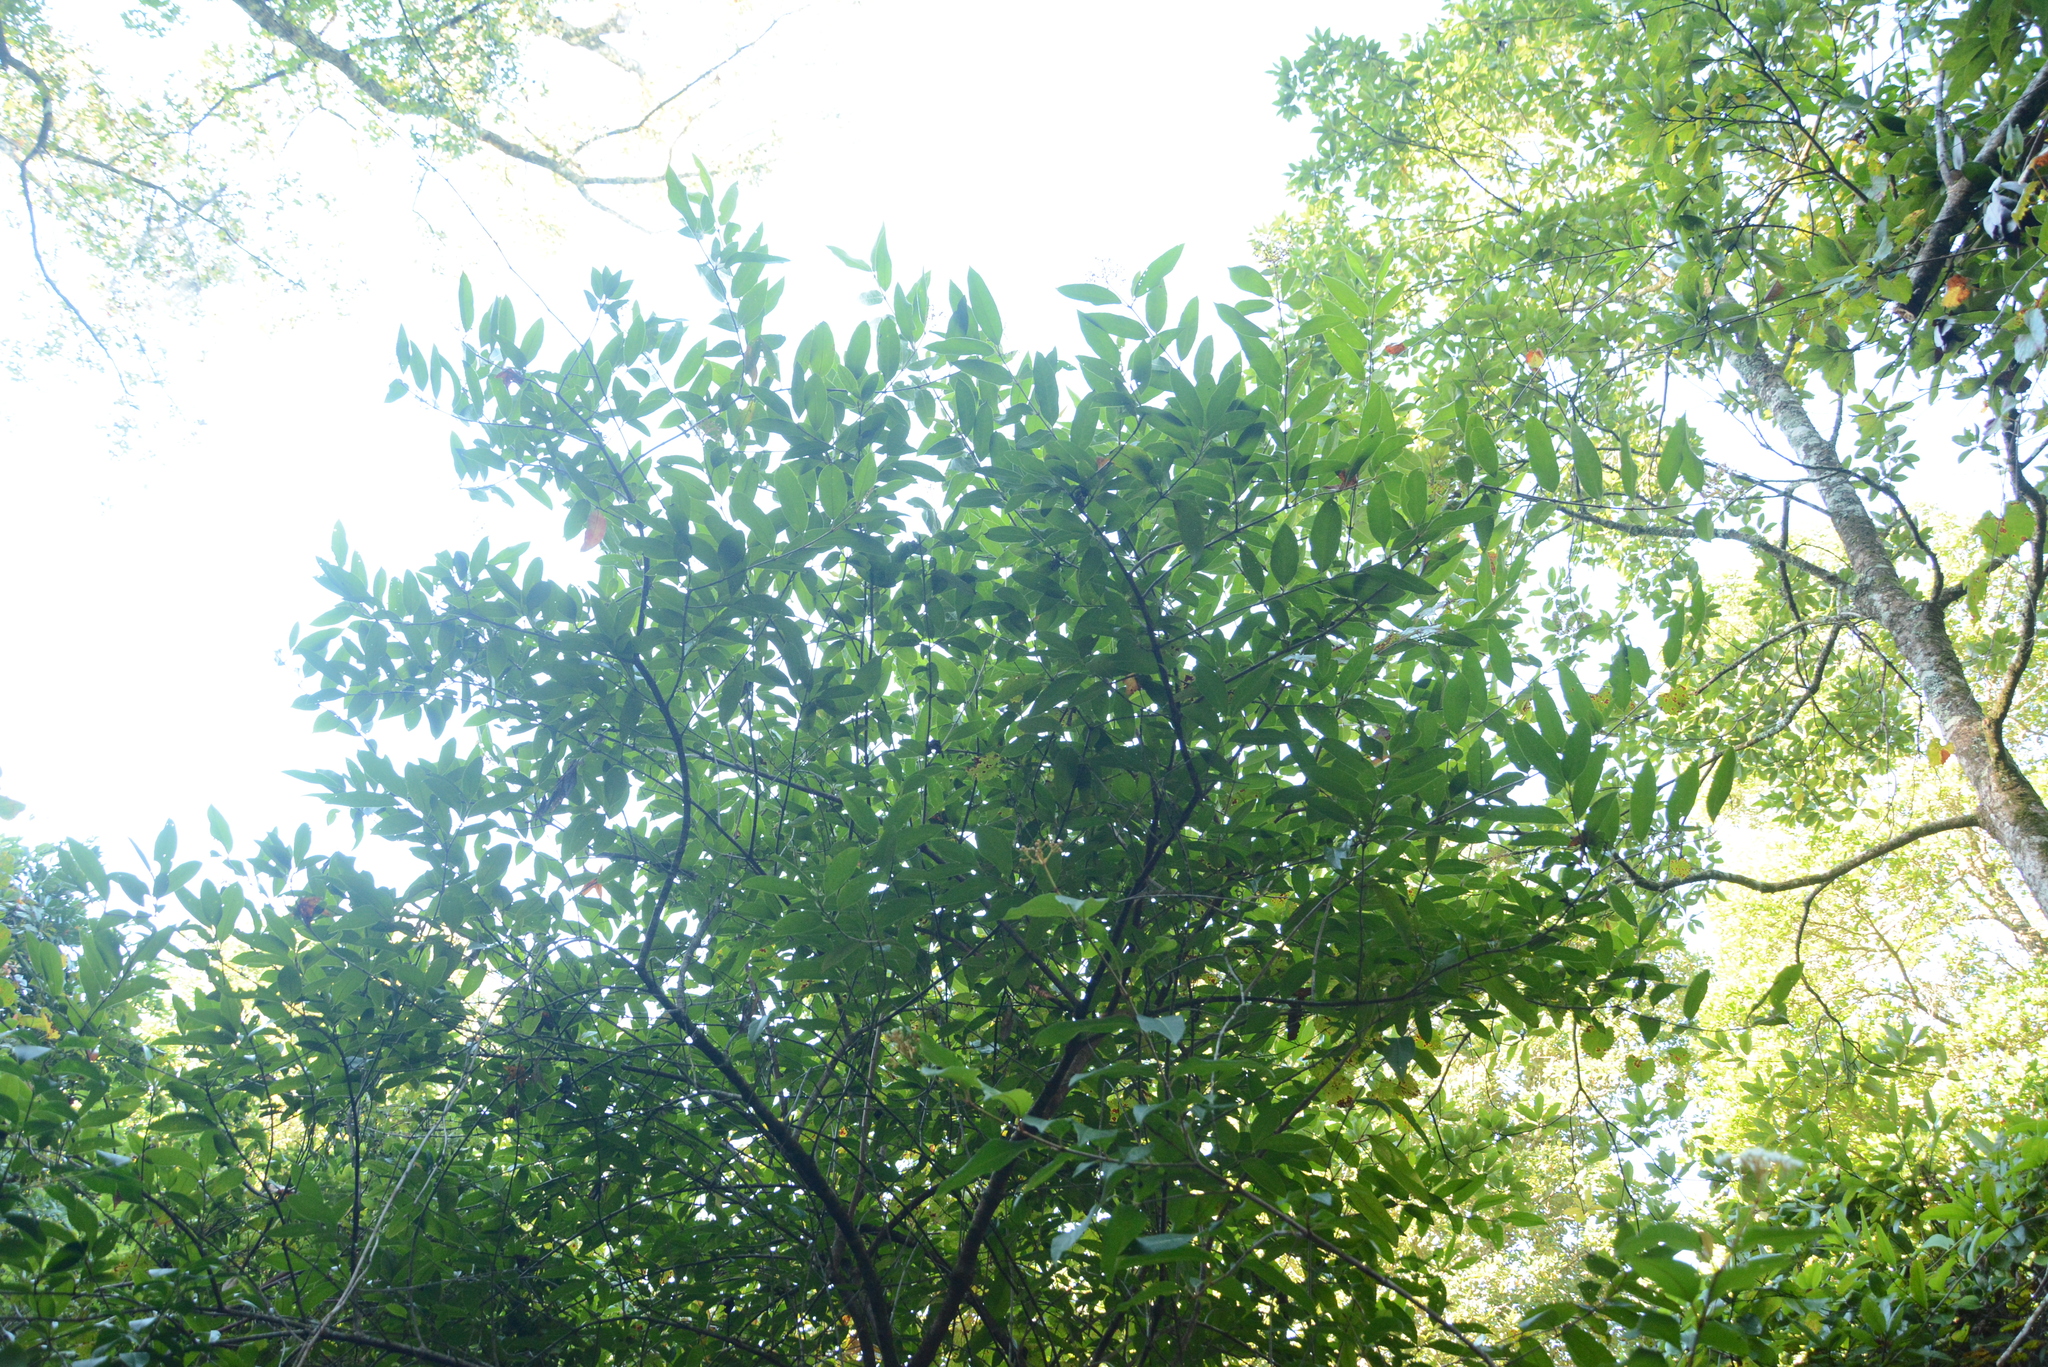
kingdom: Plantae
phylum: Tracheophyta
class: Magnoliopsida
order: Dipsacales
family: Viburnaceae
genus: Viburnum
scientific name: Viburnum nudum
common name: Possum haw
